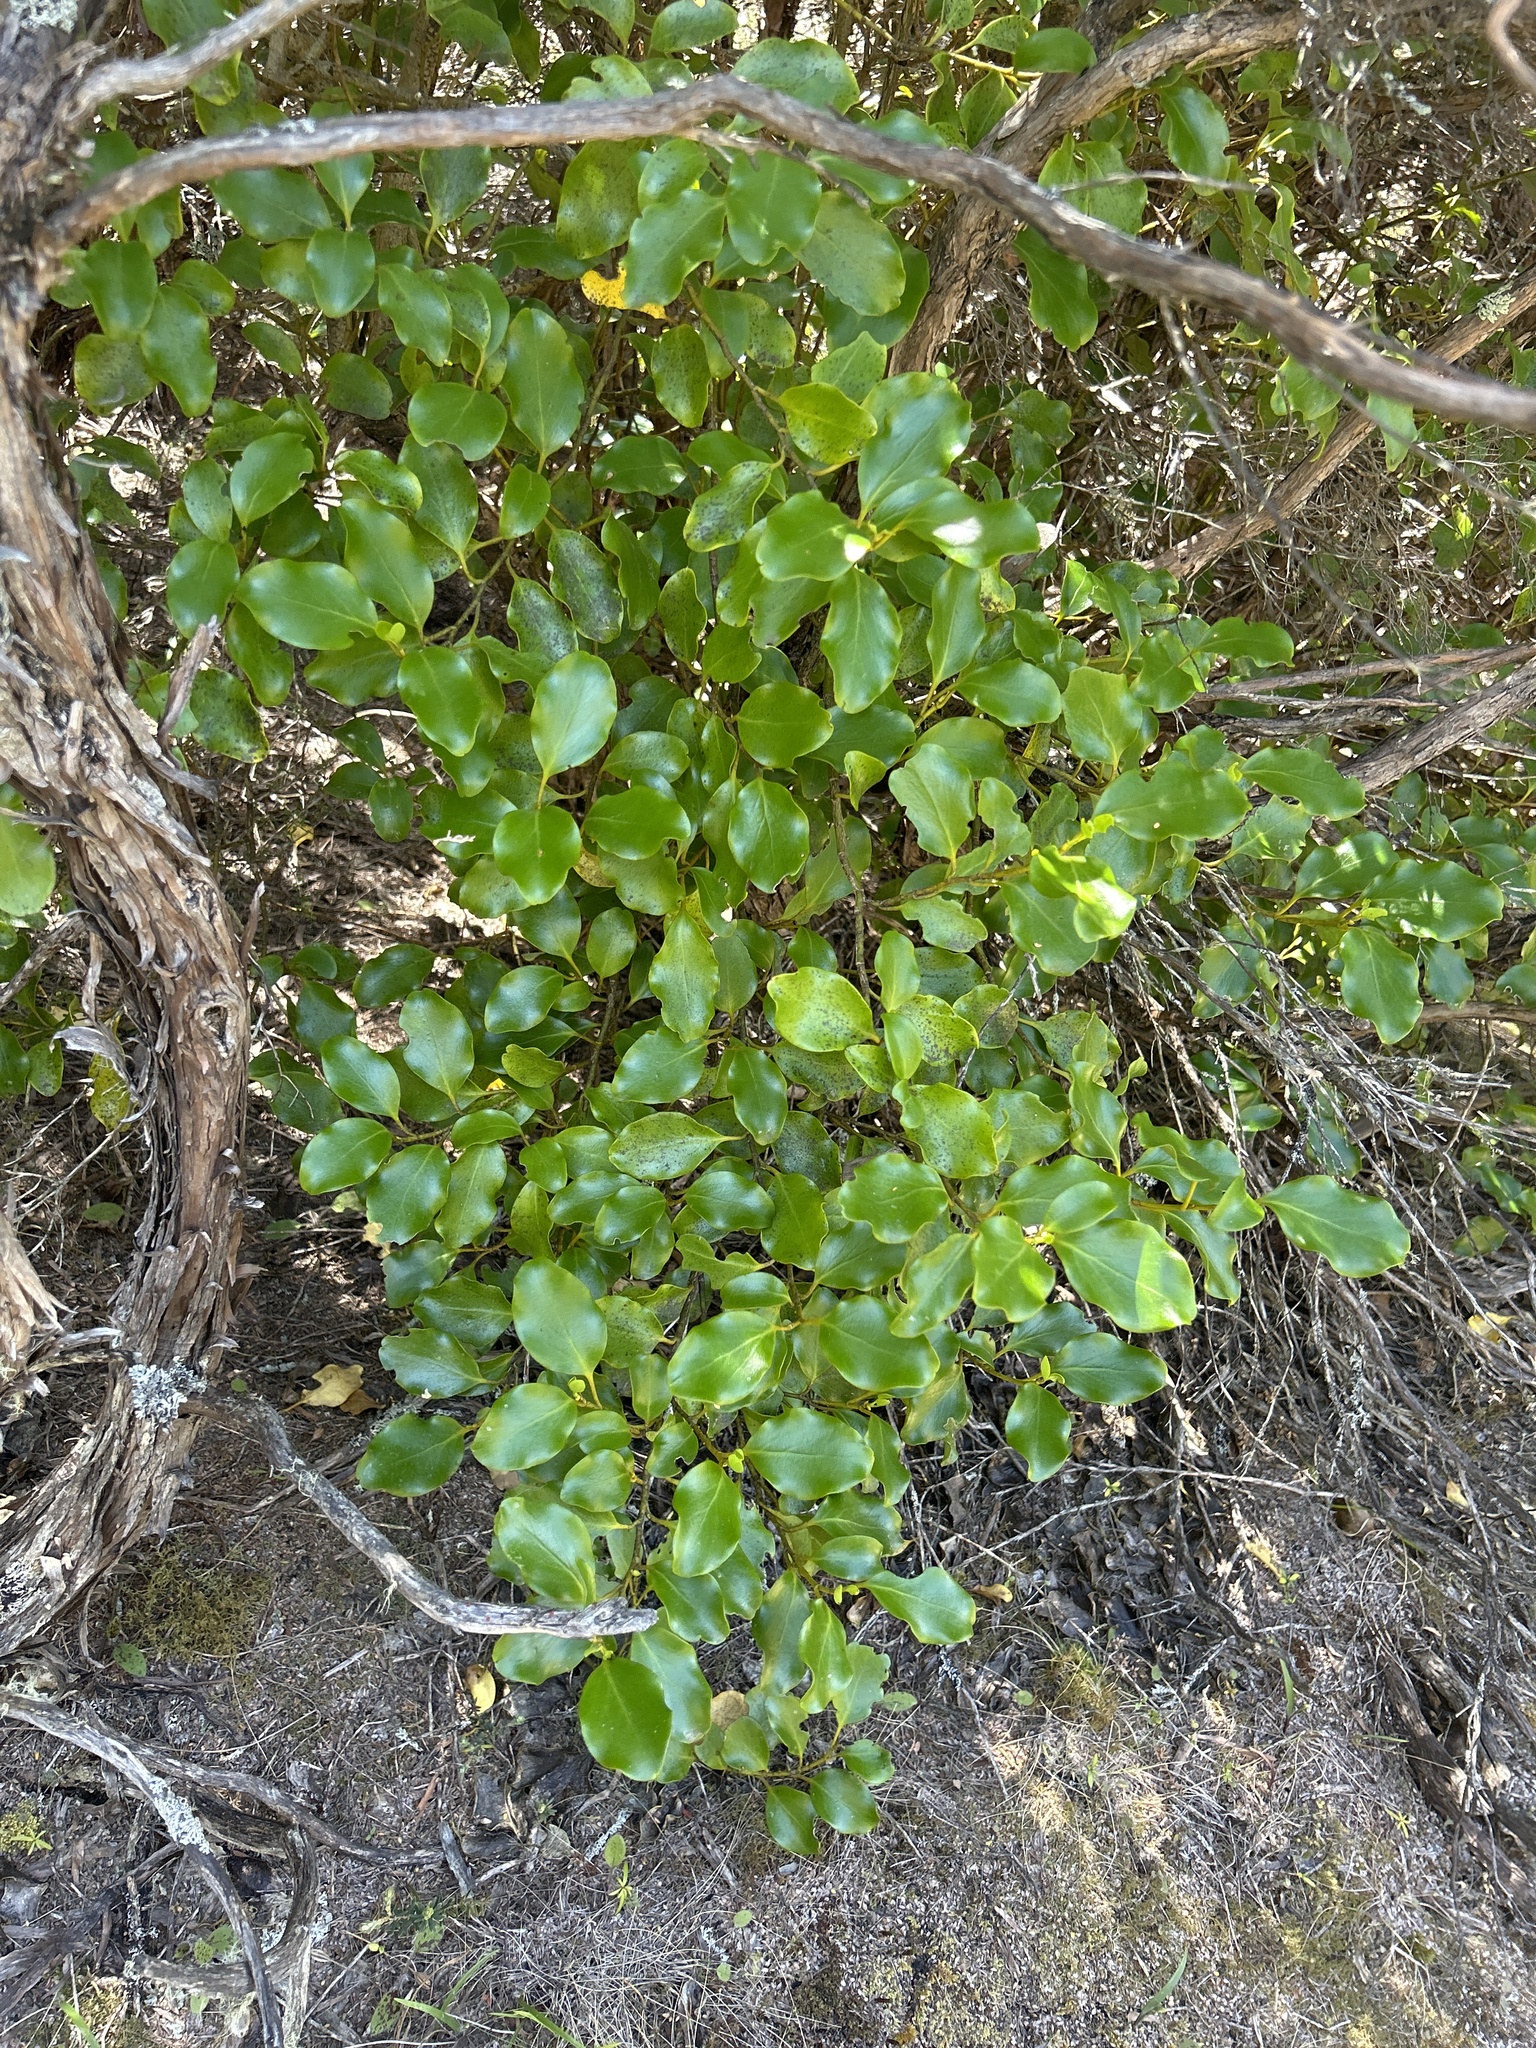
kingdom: Plantae
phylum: Tracheophyta
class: Magnoliopsida
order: Apiales
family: Griseliniaceae
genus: Griselinia
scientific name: Griselinia littoralis
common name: New zealand broadleaf
